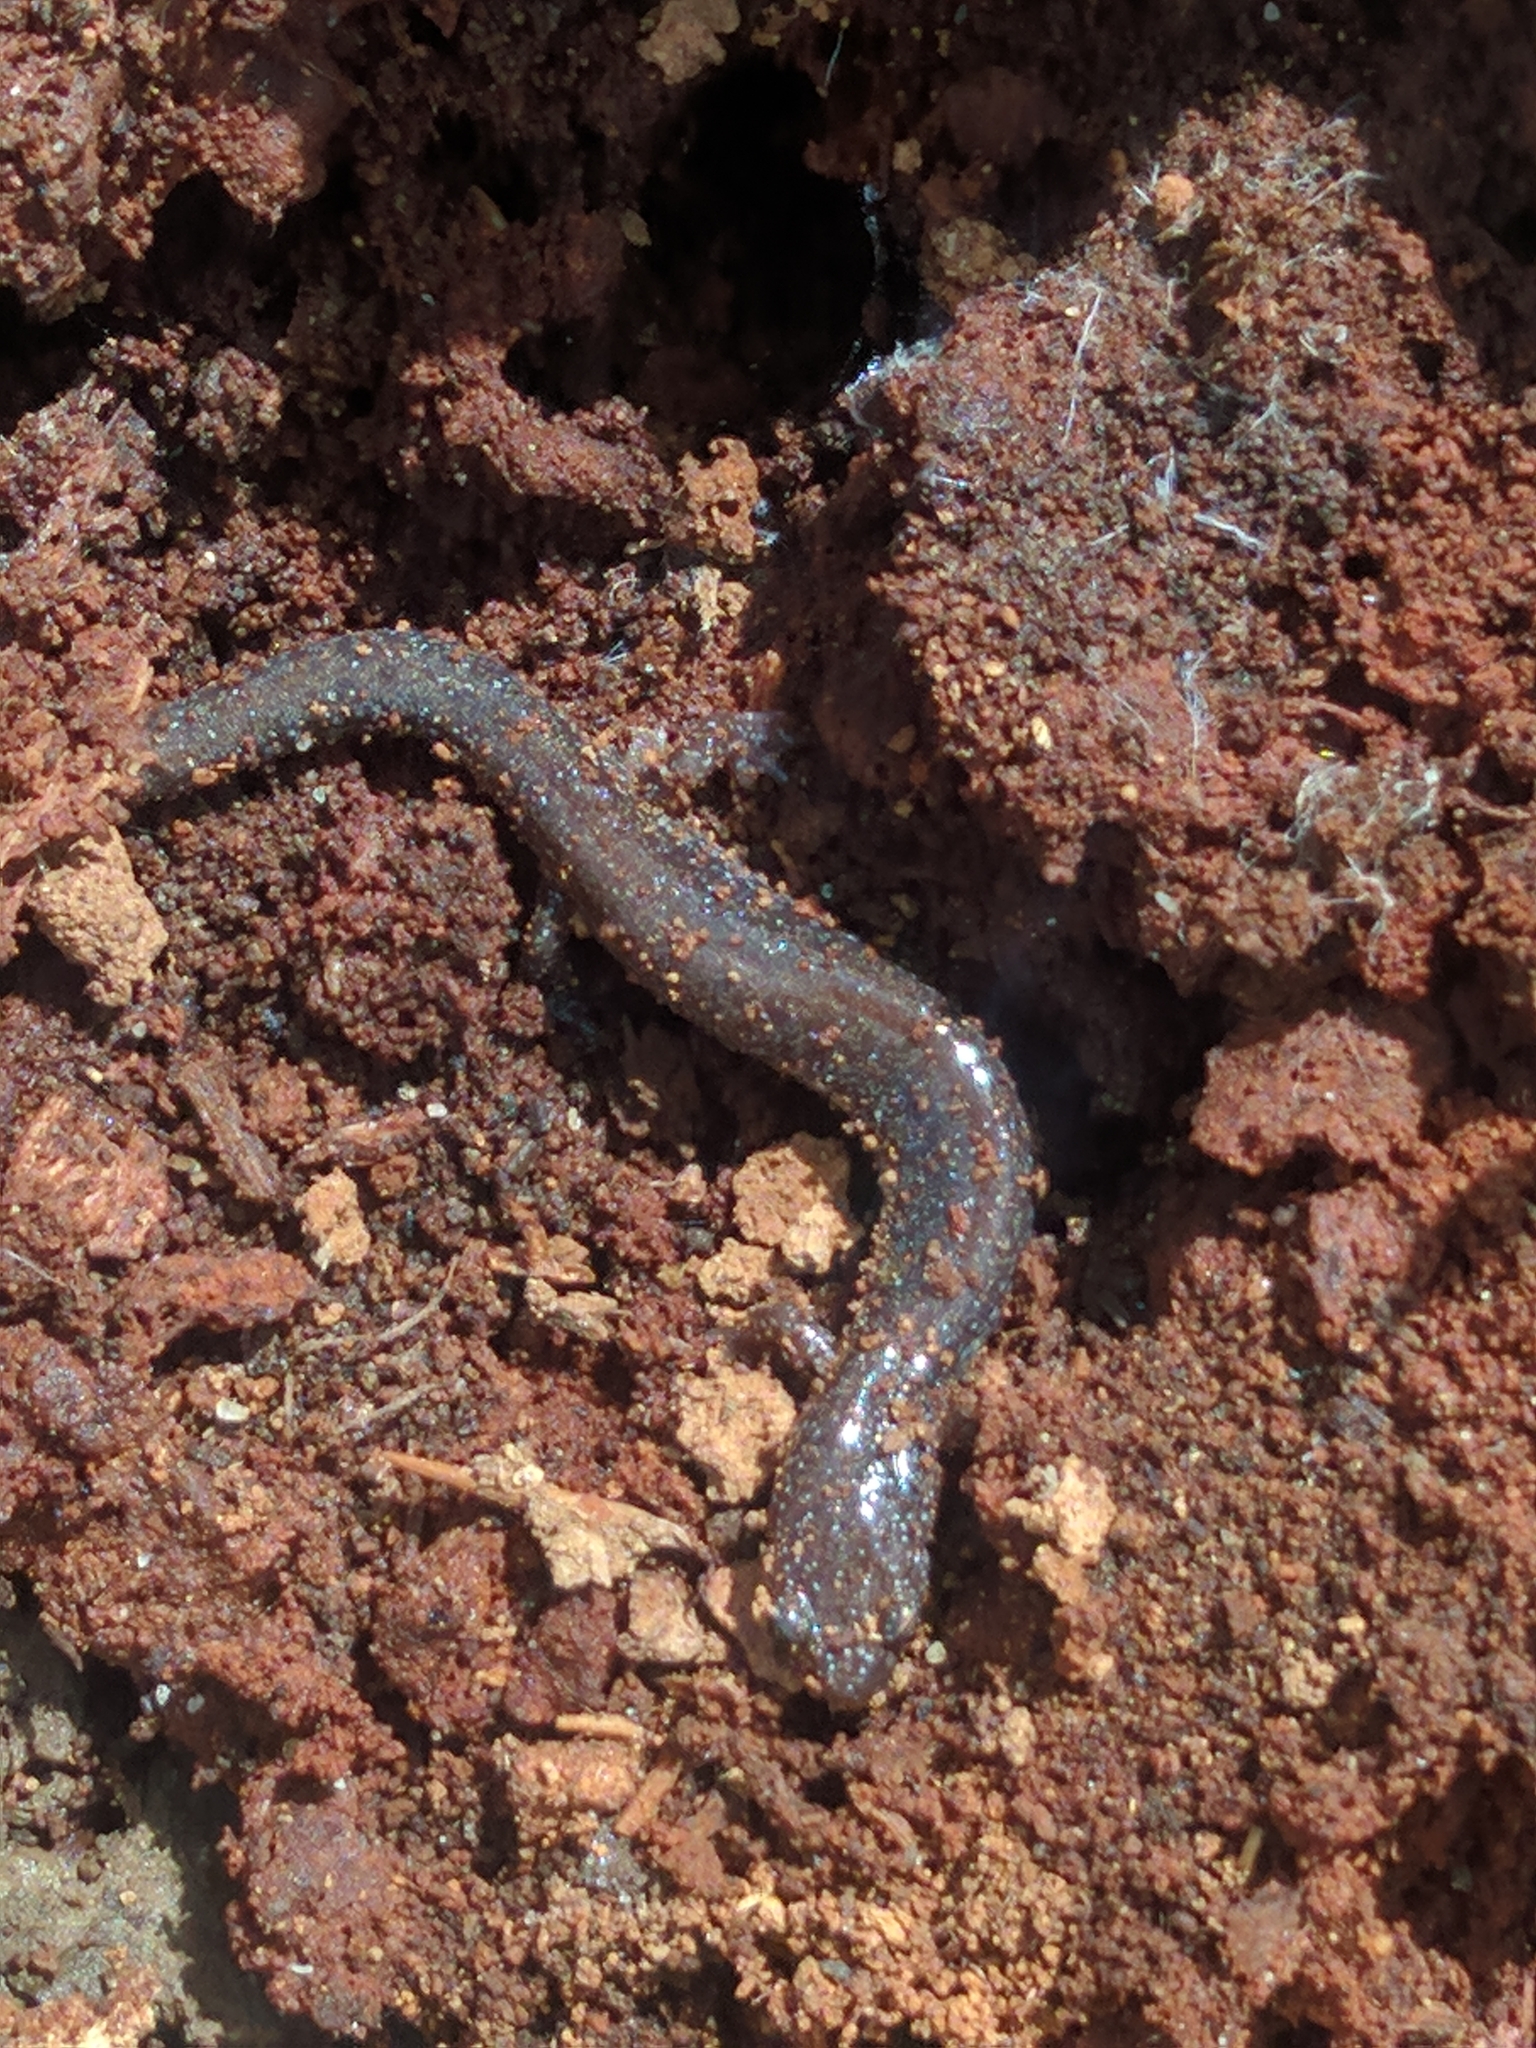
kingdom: Animalia
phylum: Chordata
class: Amphibia
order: Caudata
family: Plethodontidae
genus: Plethodon
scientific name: Plethodon cinereus
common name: Redback salamander
